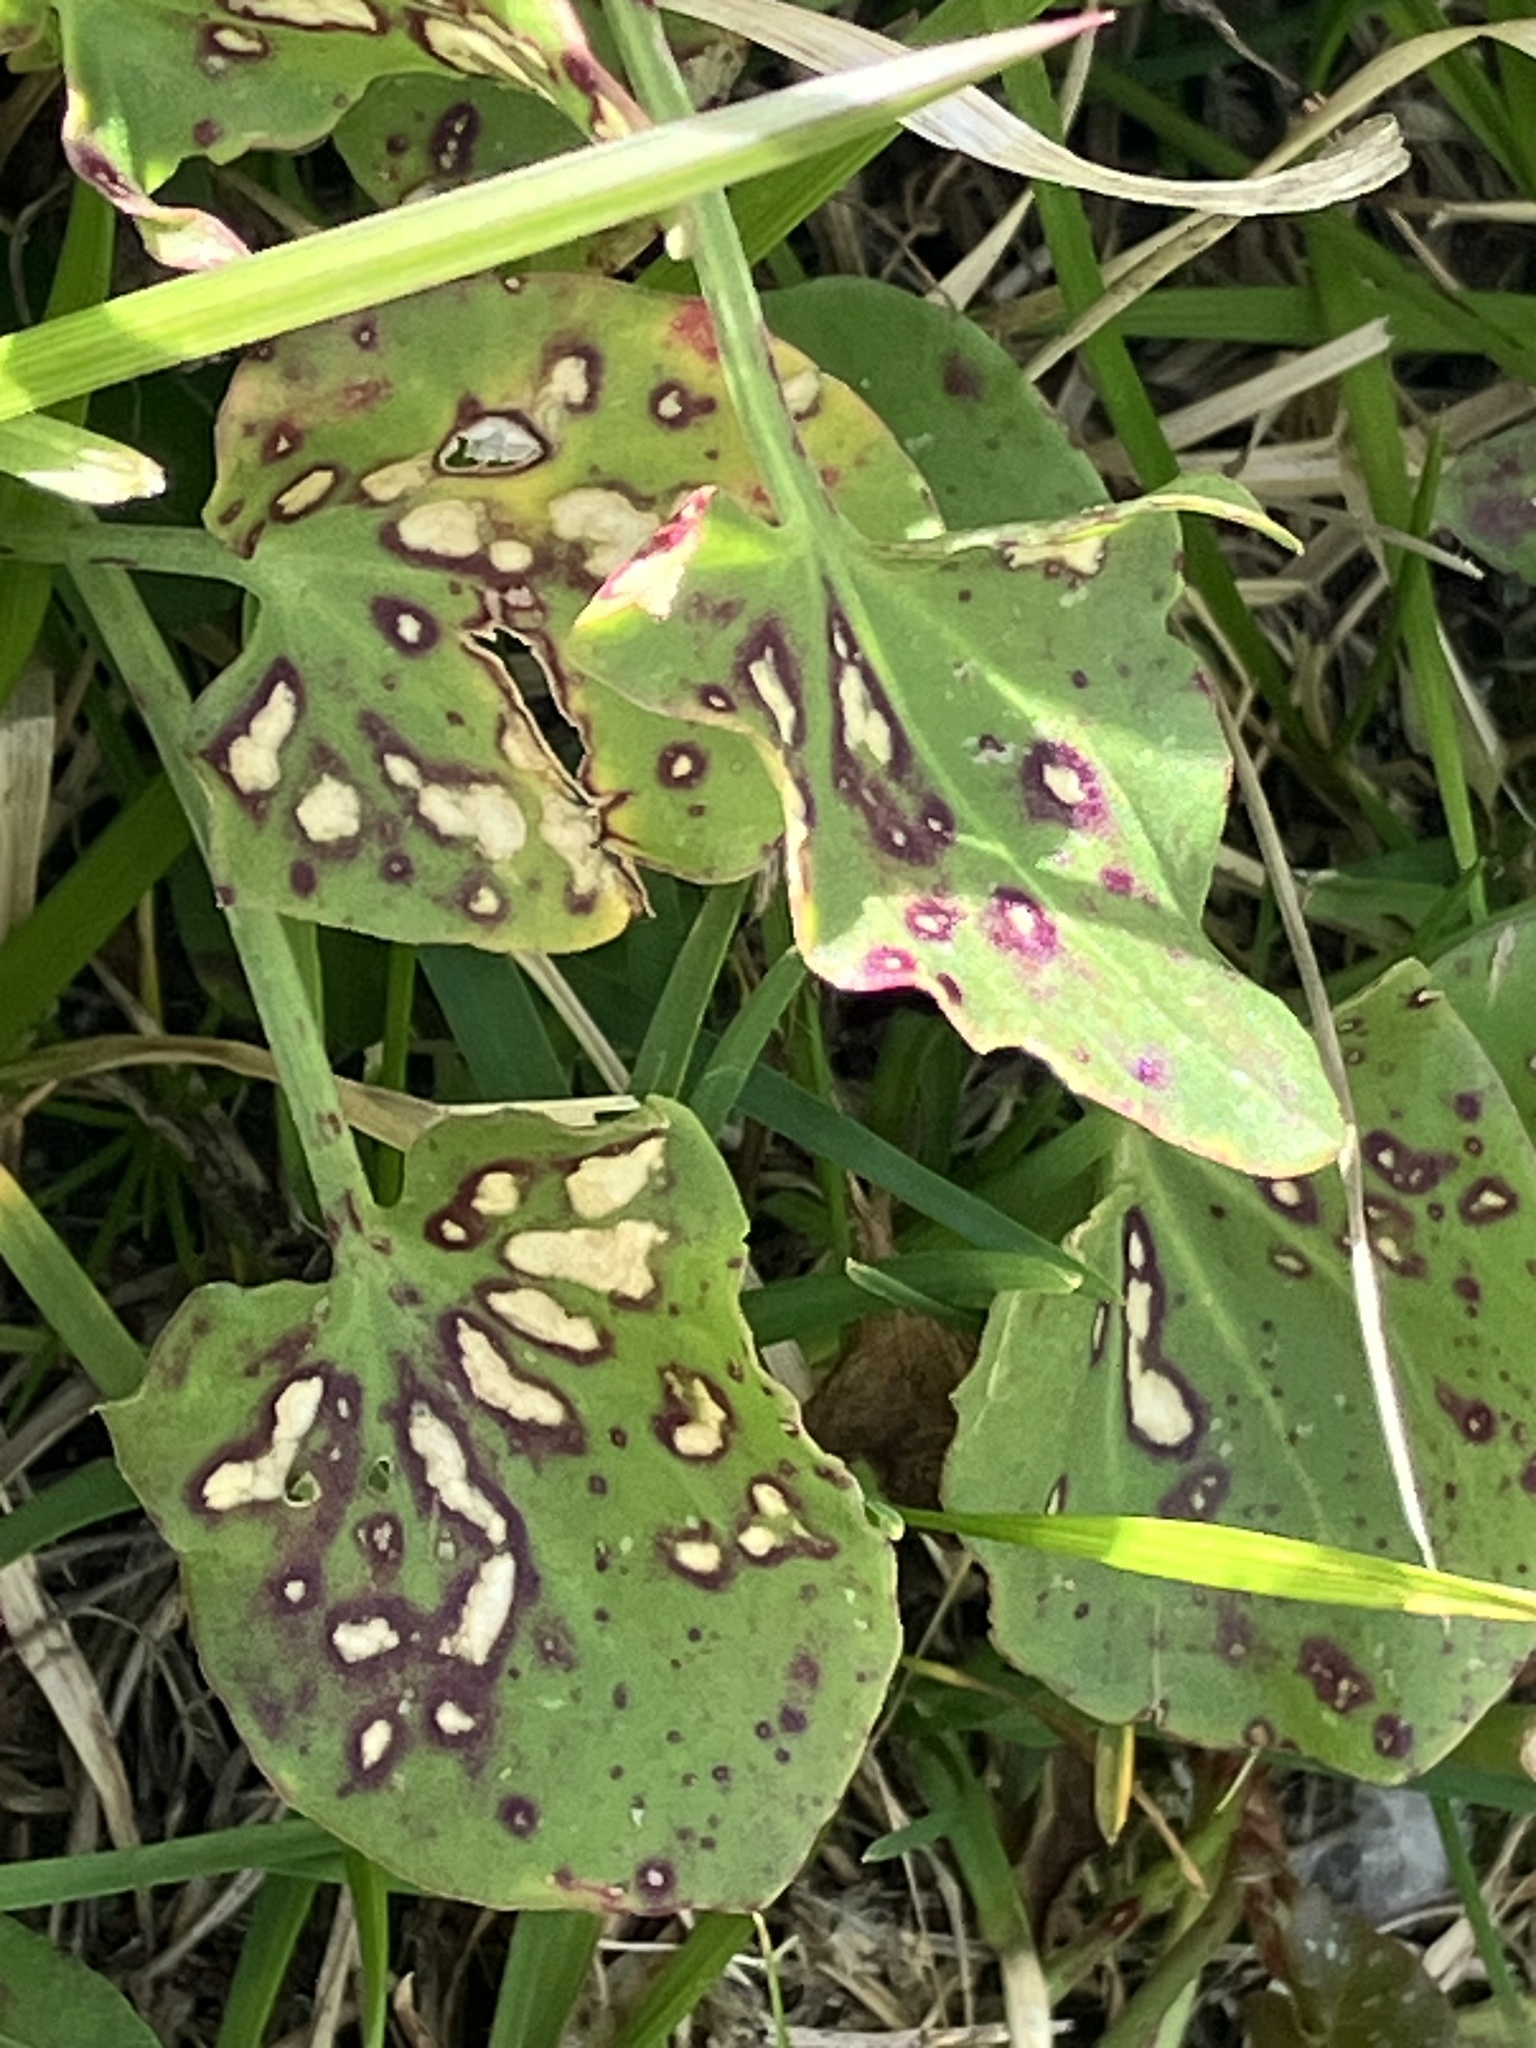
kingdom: Plantae
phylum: Tracheophyta
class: Magnoliopsida
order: Caryophyllales
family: Polygonaceae
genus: Rumex
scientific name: Rumex scutatus
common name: French sorrel
